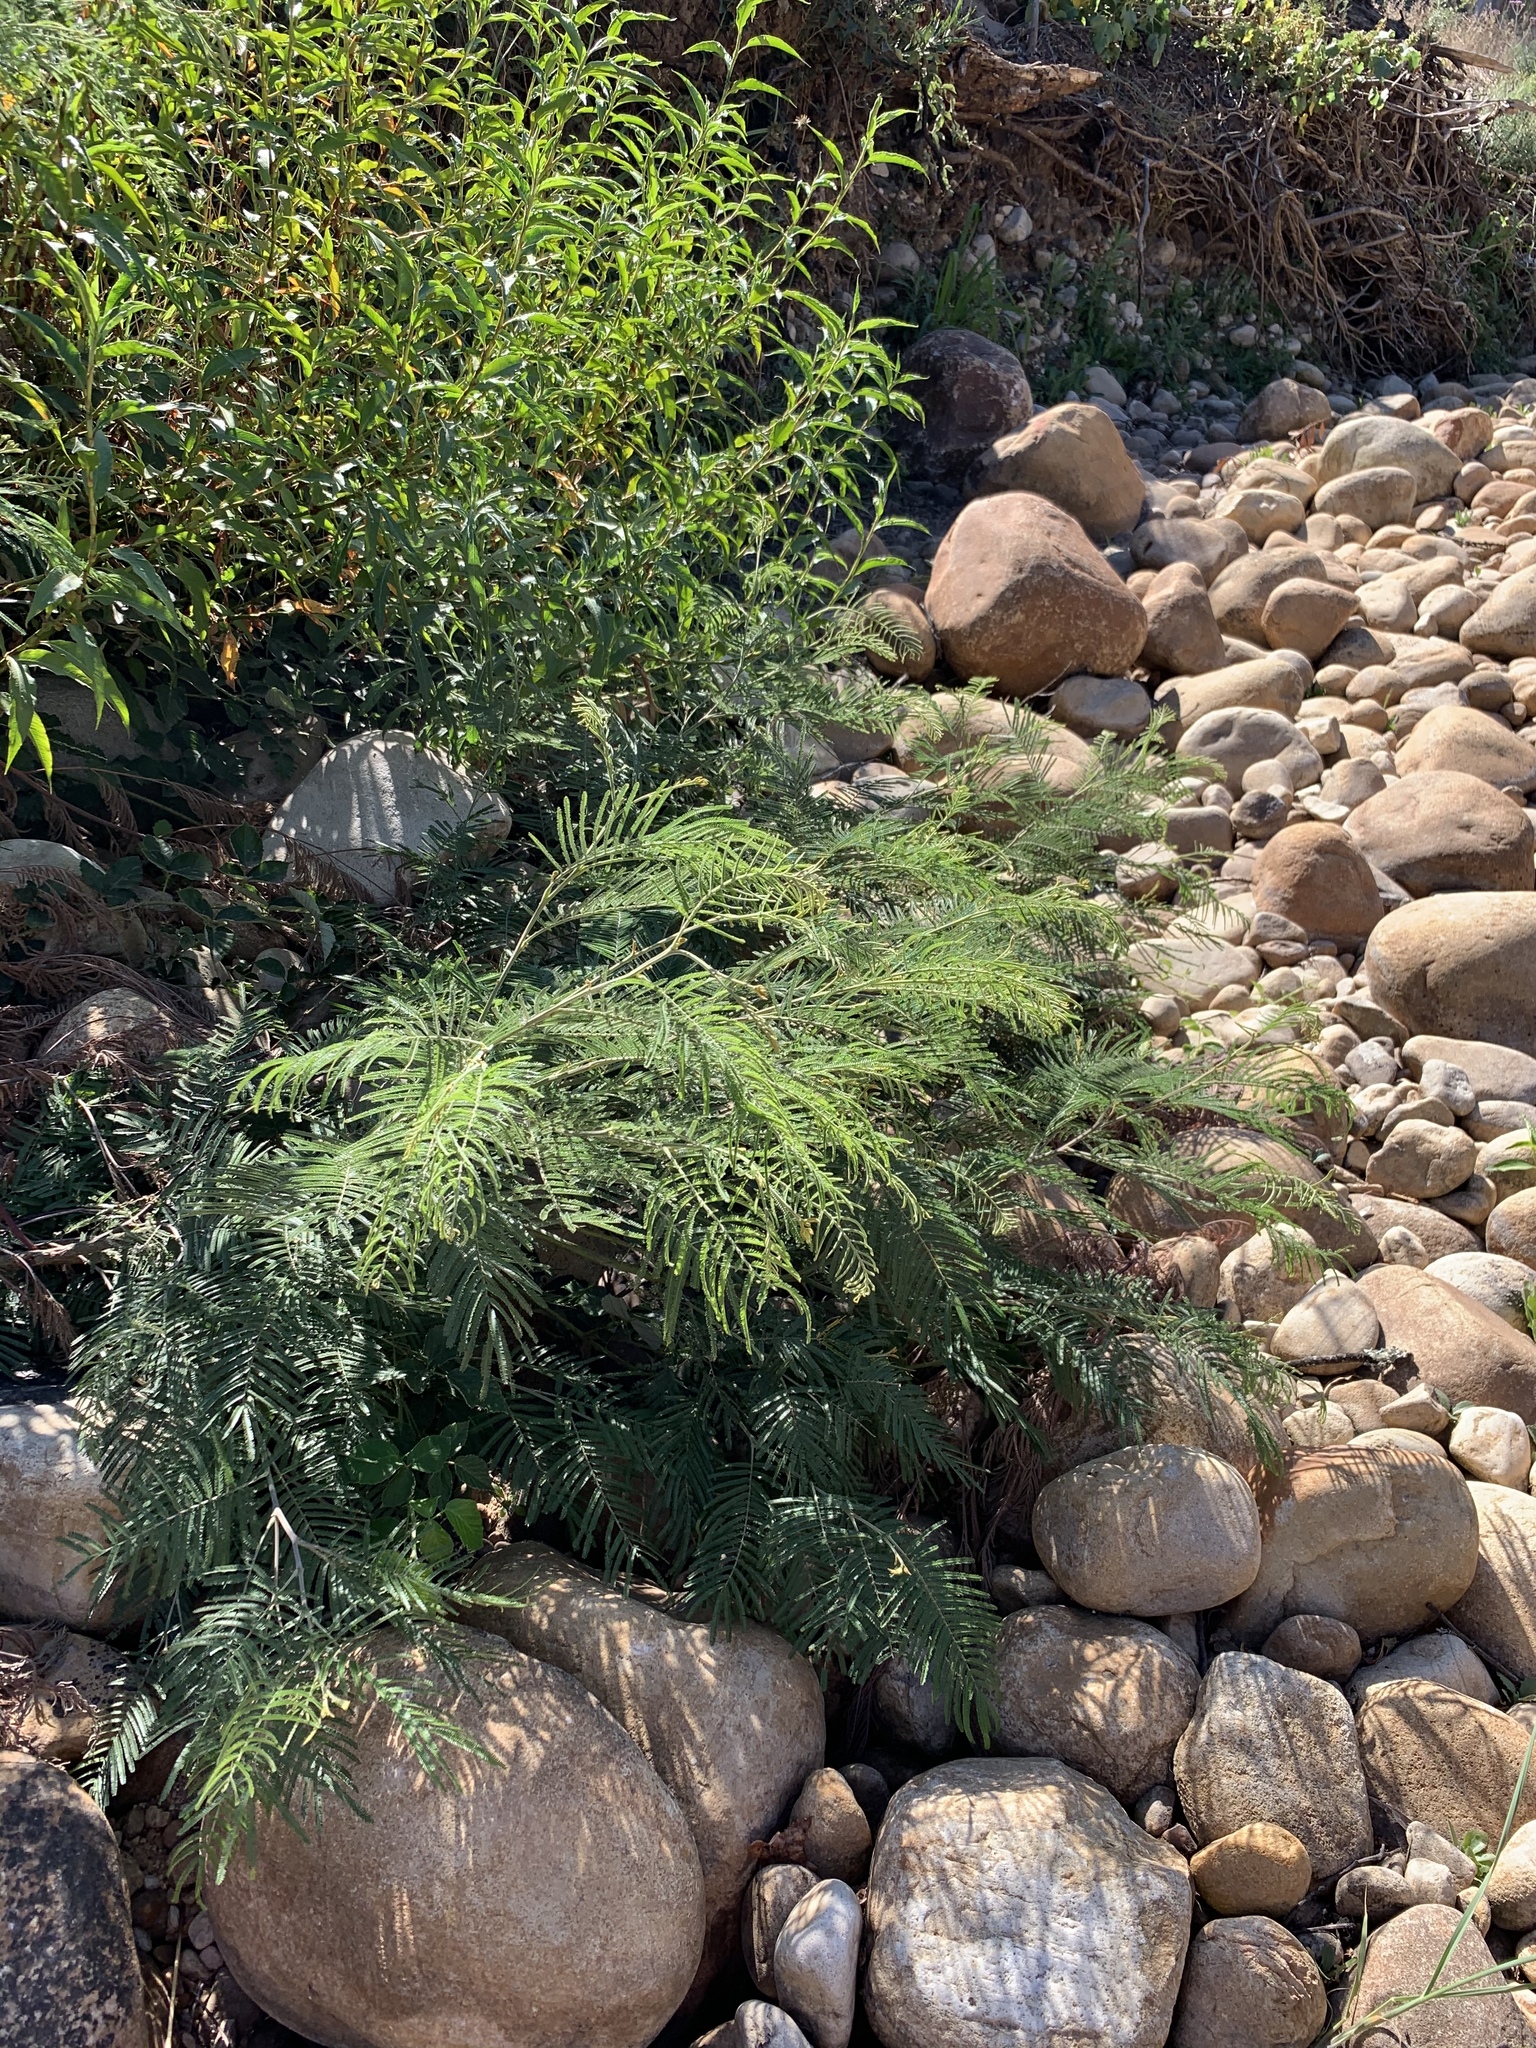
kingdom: Plantae
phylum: Tracheophyta
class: Magnoliopsida
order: Fabales
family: Fabaceae
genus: Acacia
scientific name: Acacia mearnsii
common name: Black wattle
